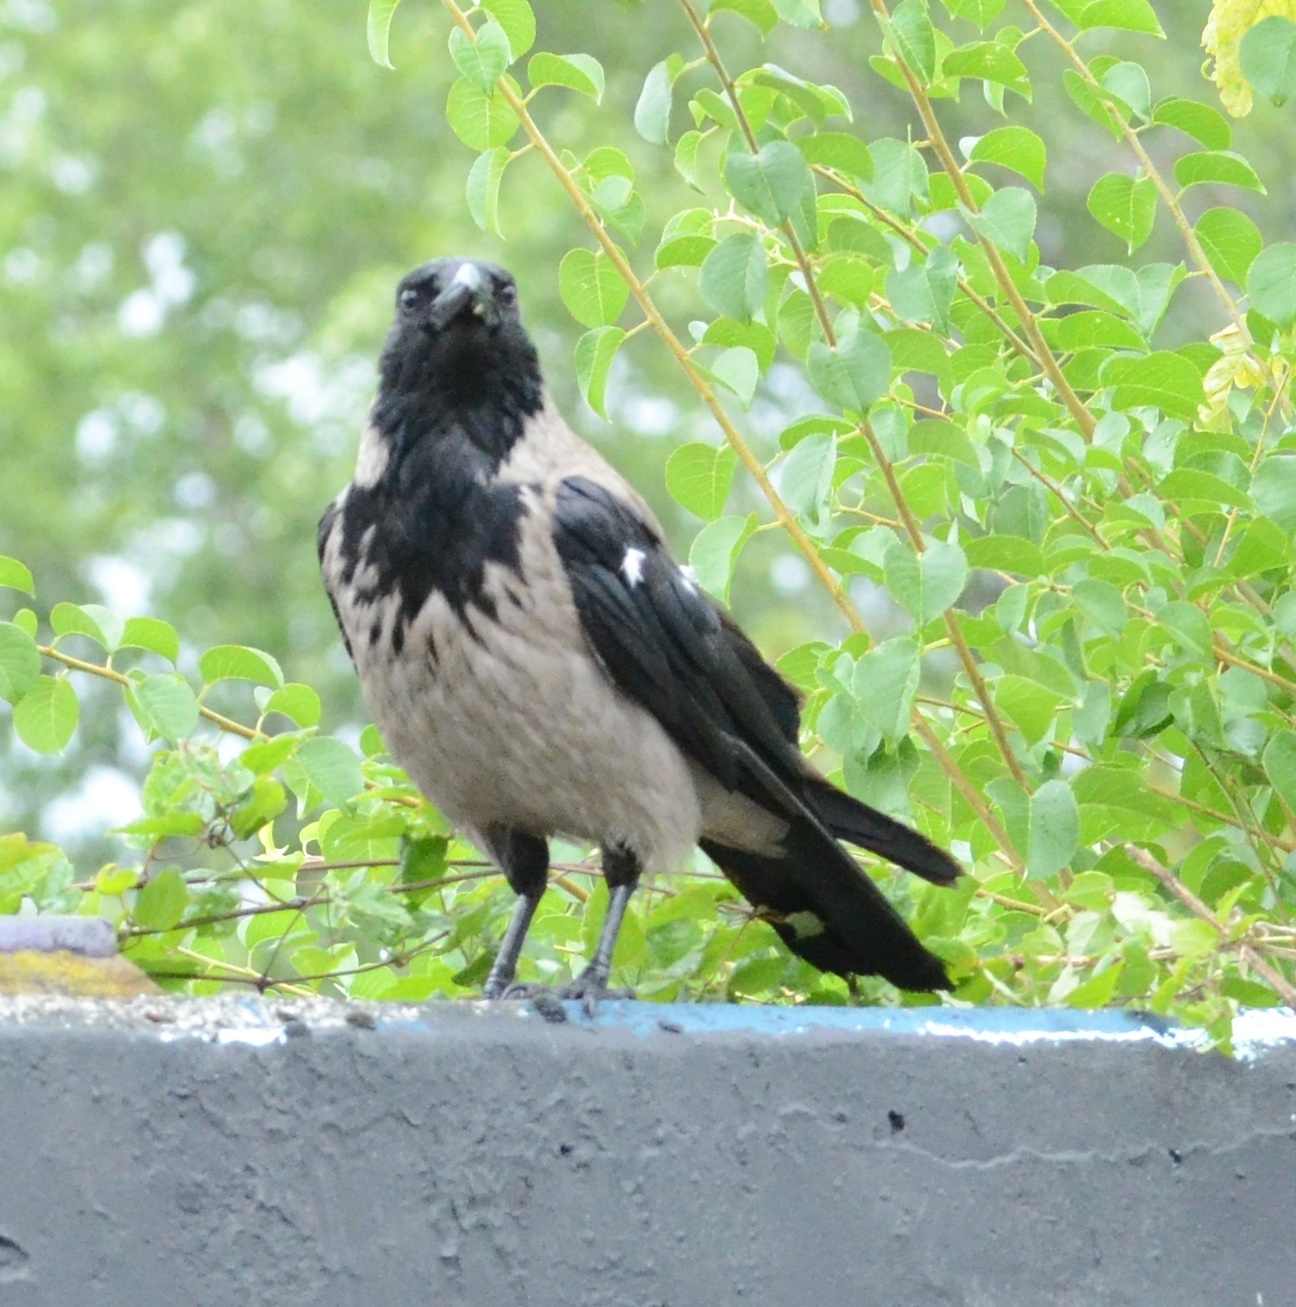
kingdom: Animalia
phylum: Chordata
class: Aves
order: Passeriformes
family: Corvidae
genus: Corvus
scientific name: Corvus cornix
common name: Hooded crow
